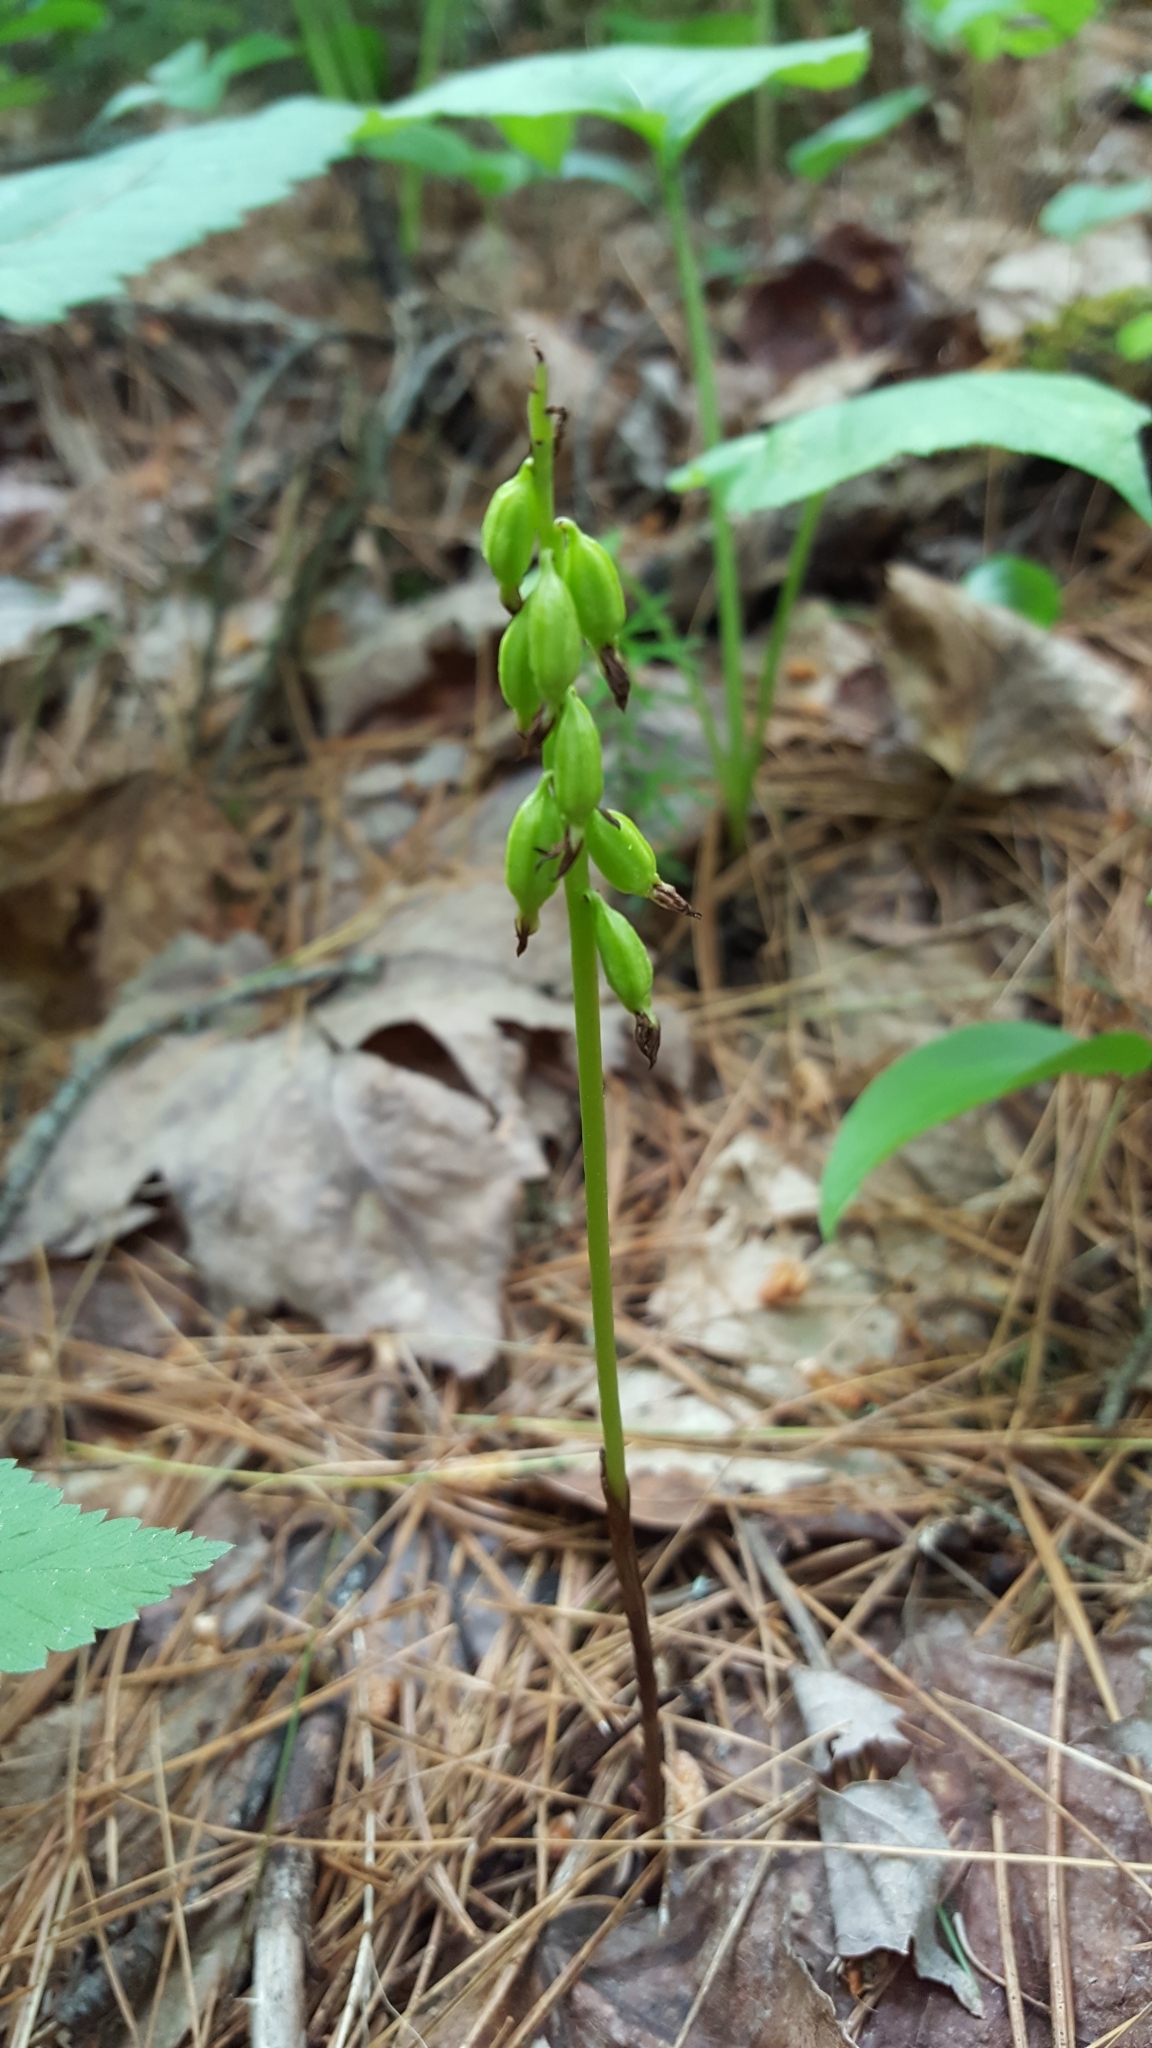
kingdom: Plantae
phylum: Tracheophyta
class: Liliopsida
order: Asparagales
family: Orchidaceae
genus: Corallorhiza
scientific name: Corallorhiza trifida
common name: Yellow coralroot
